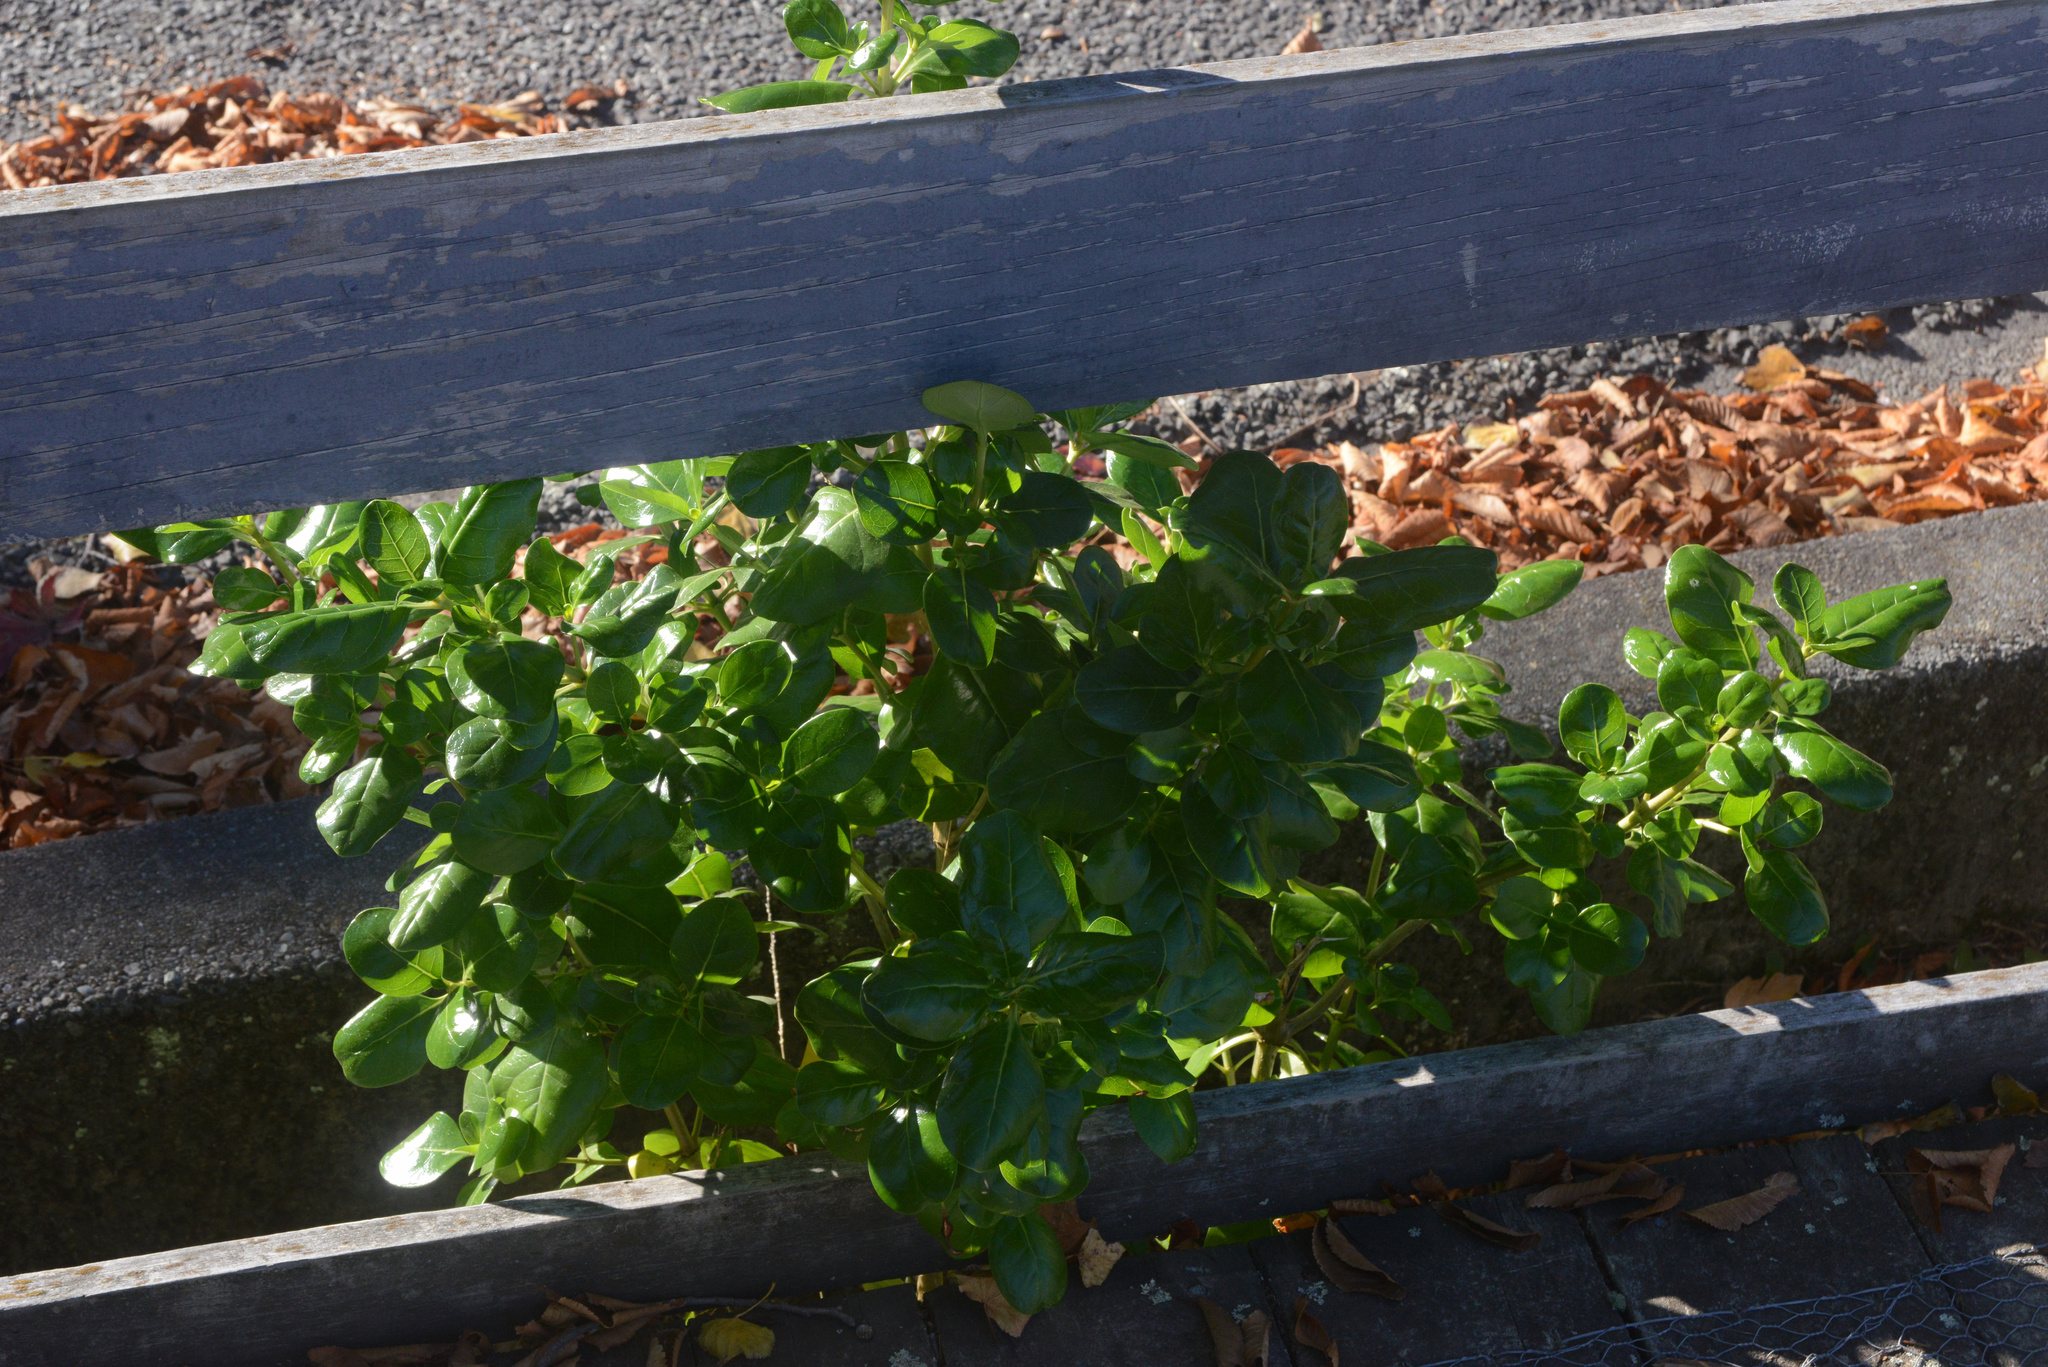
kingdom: Plantae
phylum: Tracheophyta
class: Magnoliopsida
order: Gentianales
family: Rubiaceae
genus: Coprosma
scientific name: Coprosma repens
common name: Tree bedstraw
